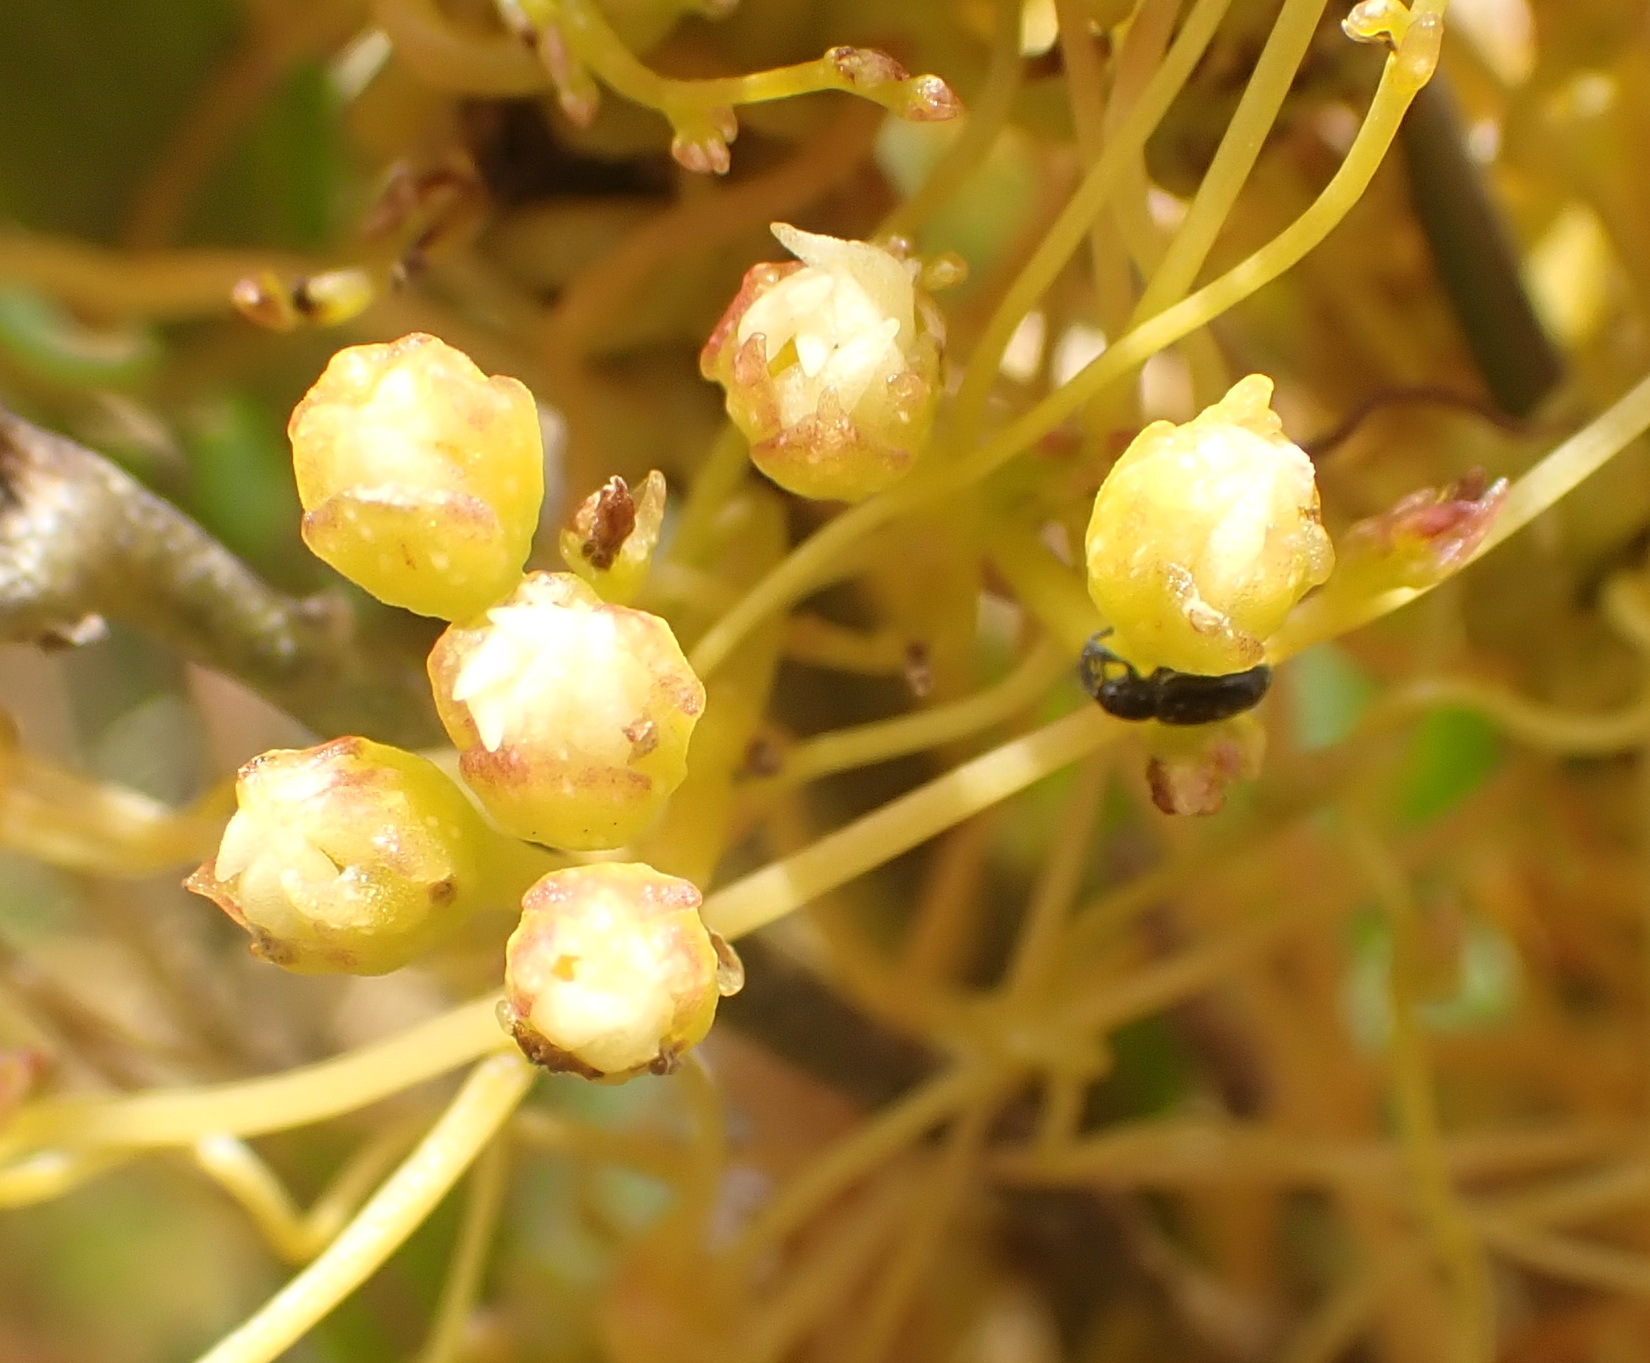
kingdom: Plantae
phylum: Tracheophyta
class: Magnoliopsida
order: Solanales
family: Convolvulaceae
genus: Cuscuta
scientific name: Cuscuta nitida
